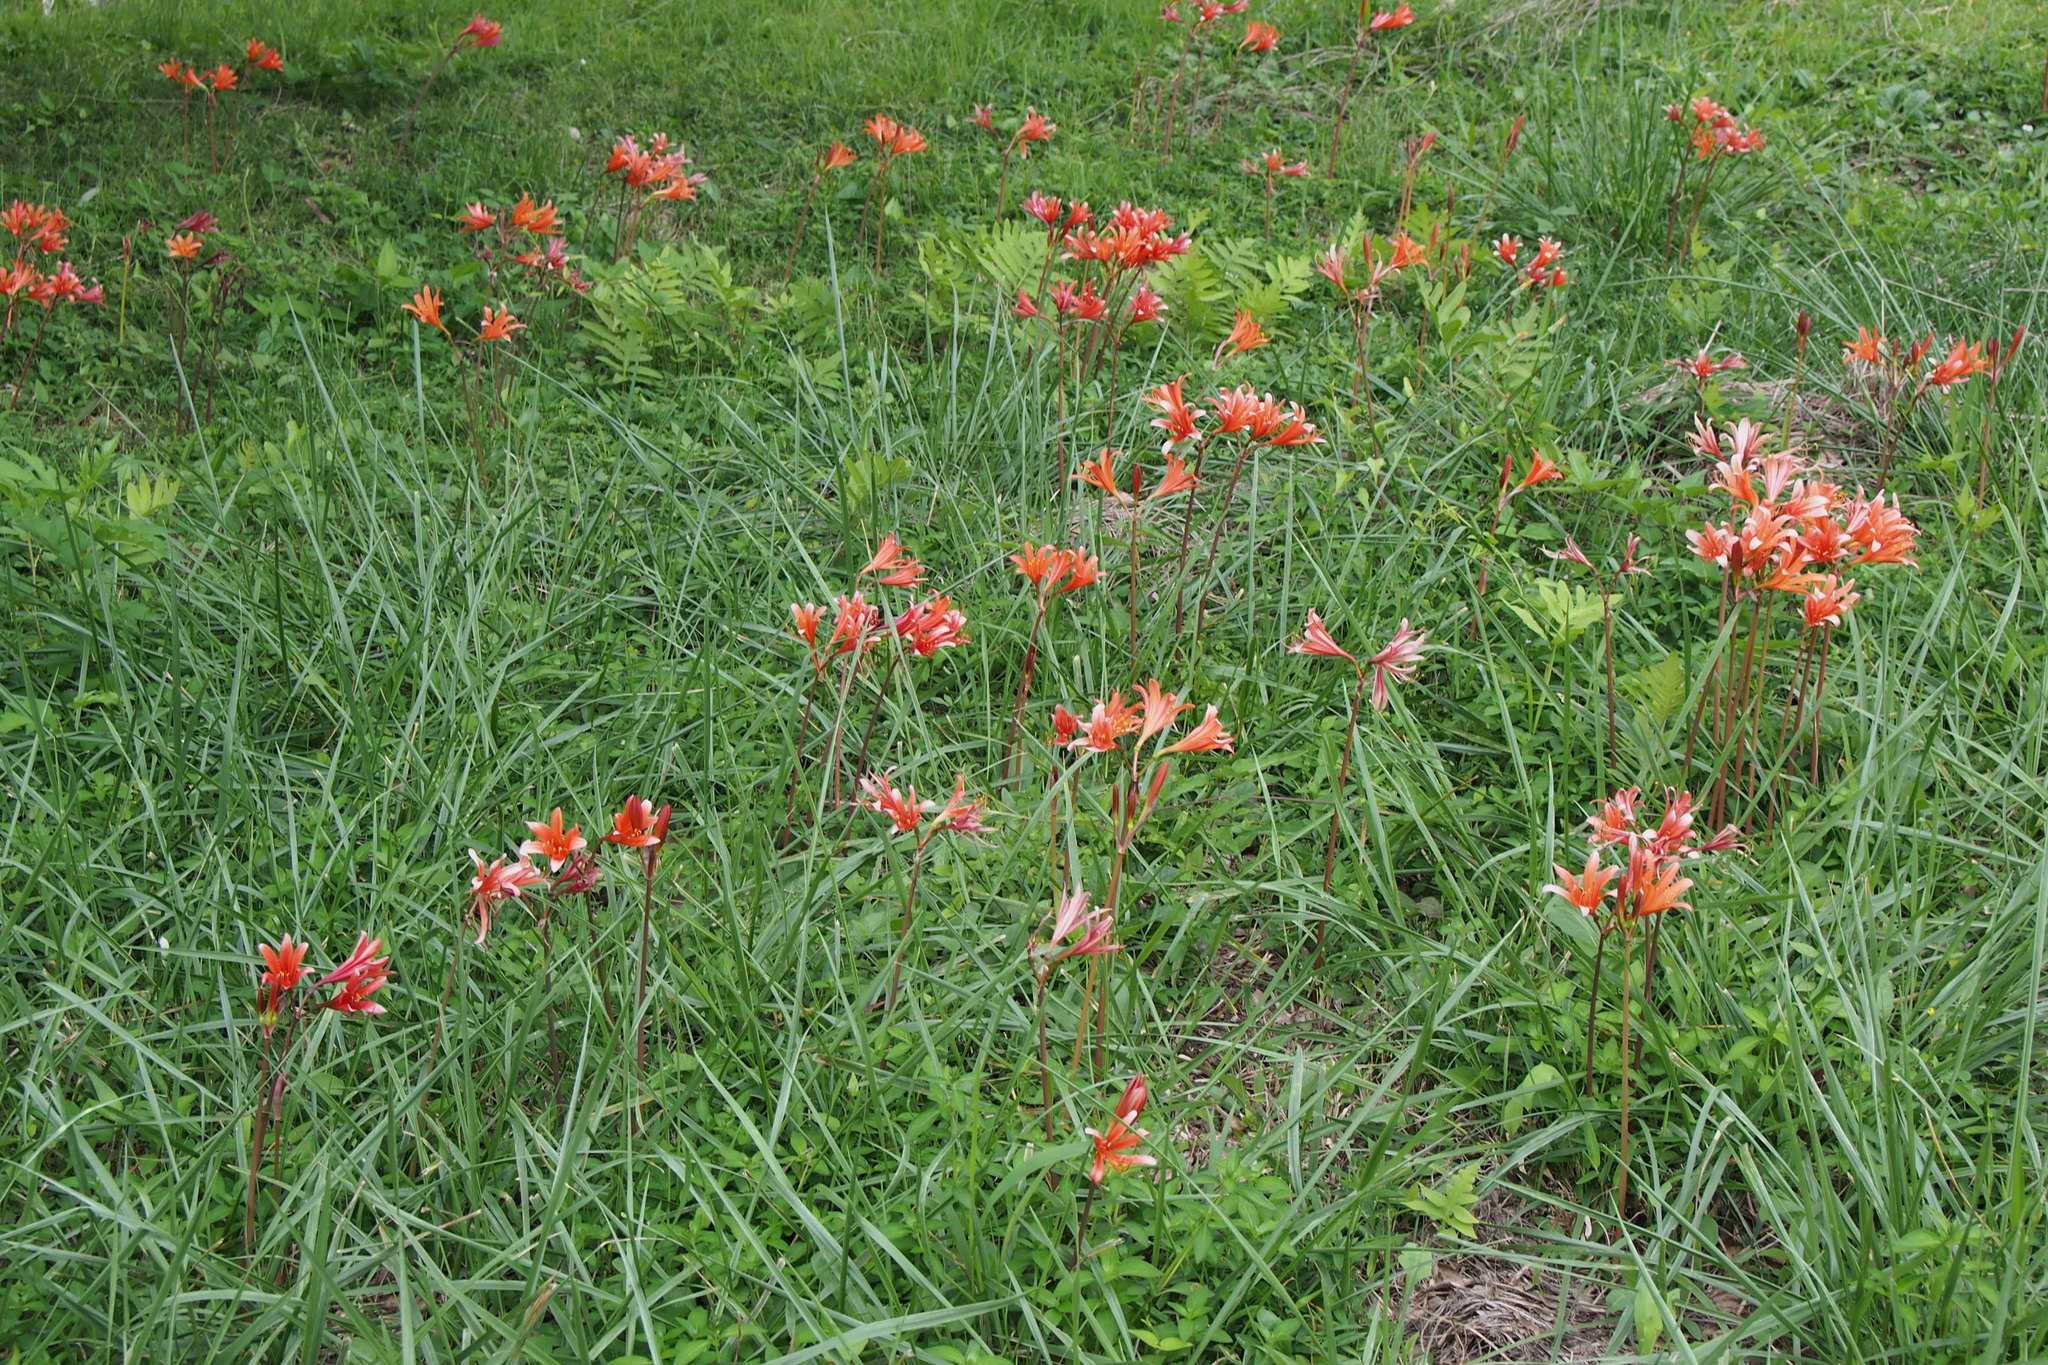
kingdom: Plantae
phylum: Tracheophyta
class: Liliopsida
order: Asparagales
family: Amaryllidaceae
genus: Lycoris
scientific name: Lycoris sanguinea
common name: Spider-lily
